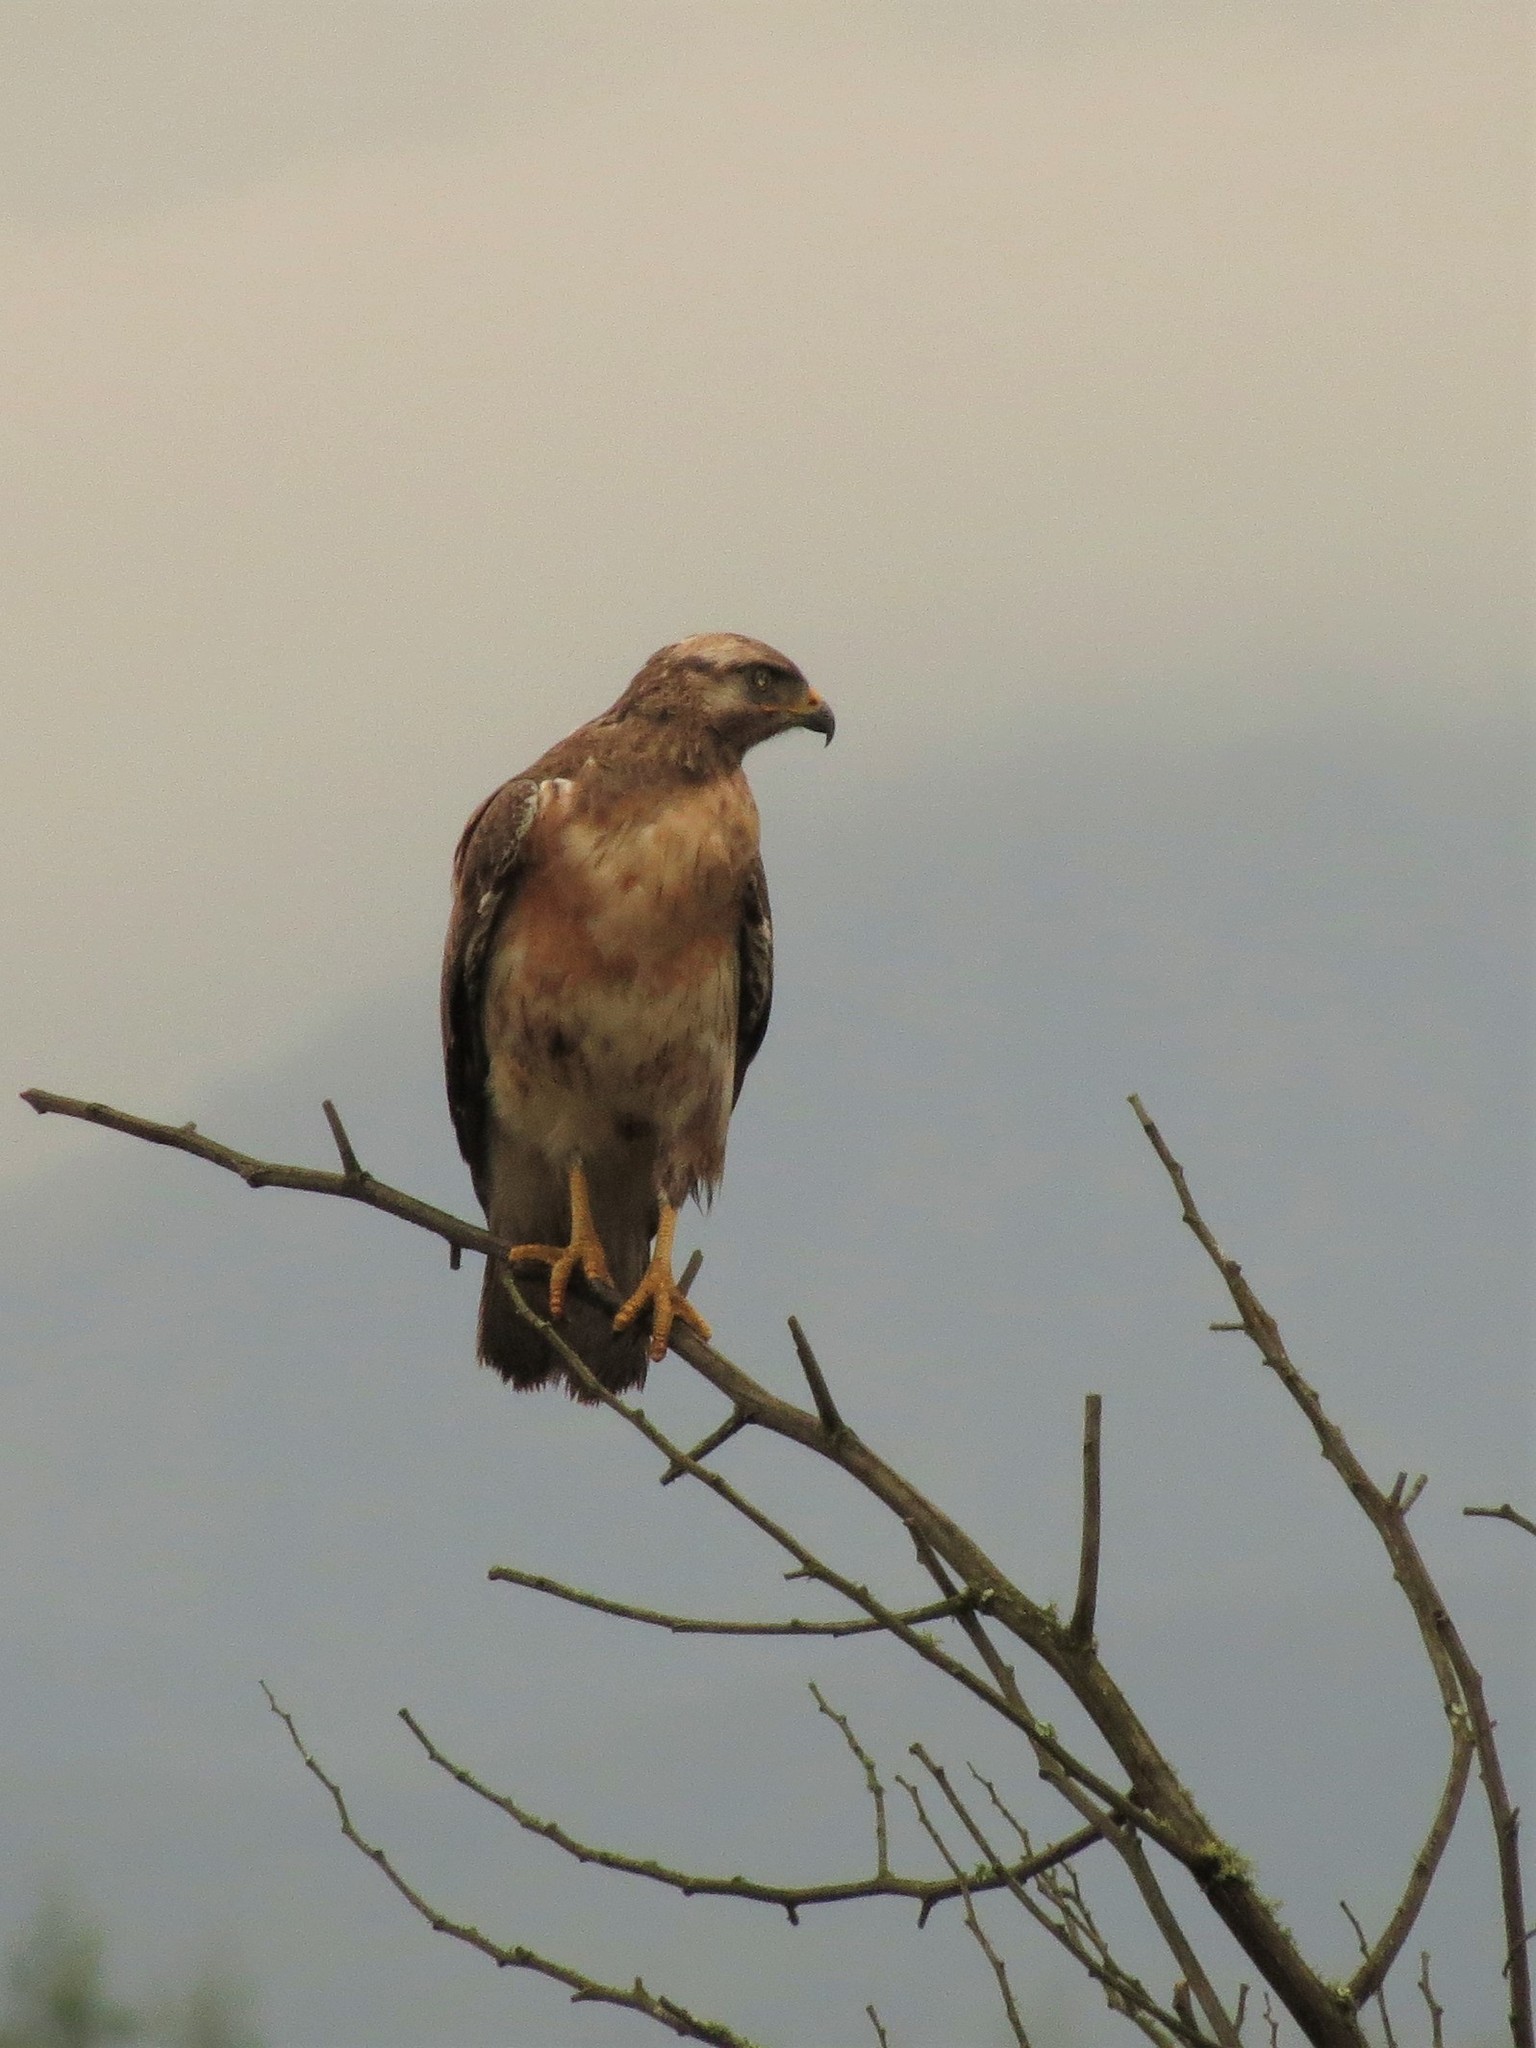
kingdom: Animalia
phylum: Chordata
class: Aves
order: Accipitriformes
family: Accipitridae
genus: Buteo
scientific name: Buteo rufofuscus
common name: Jackal buzzard
